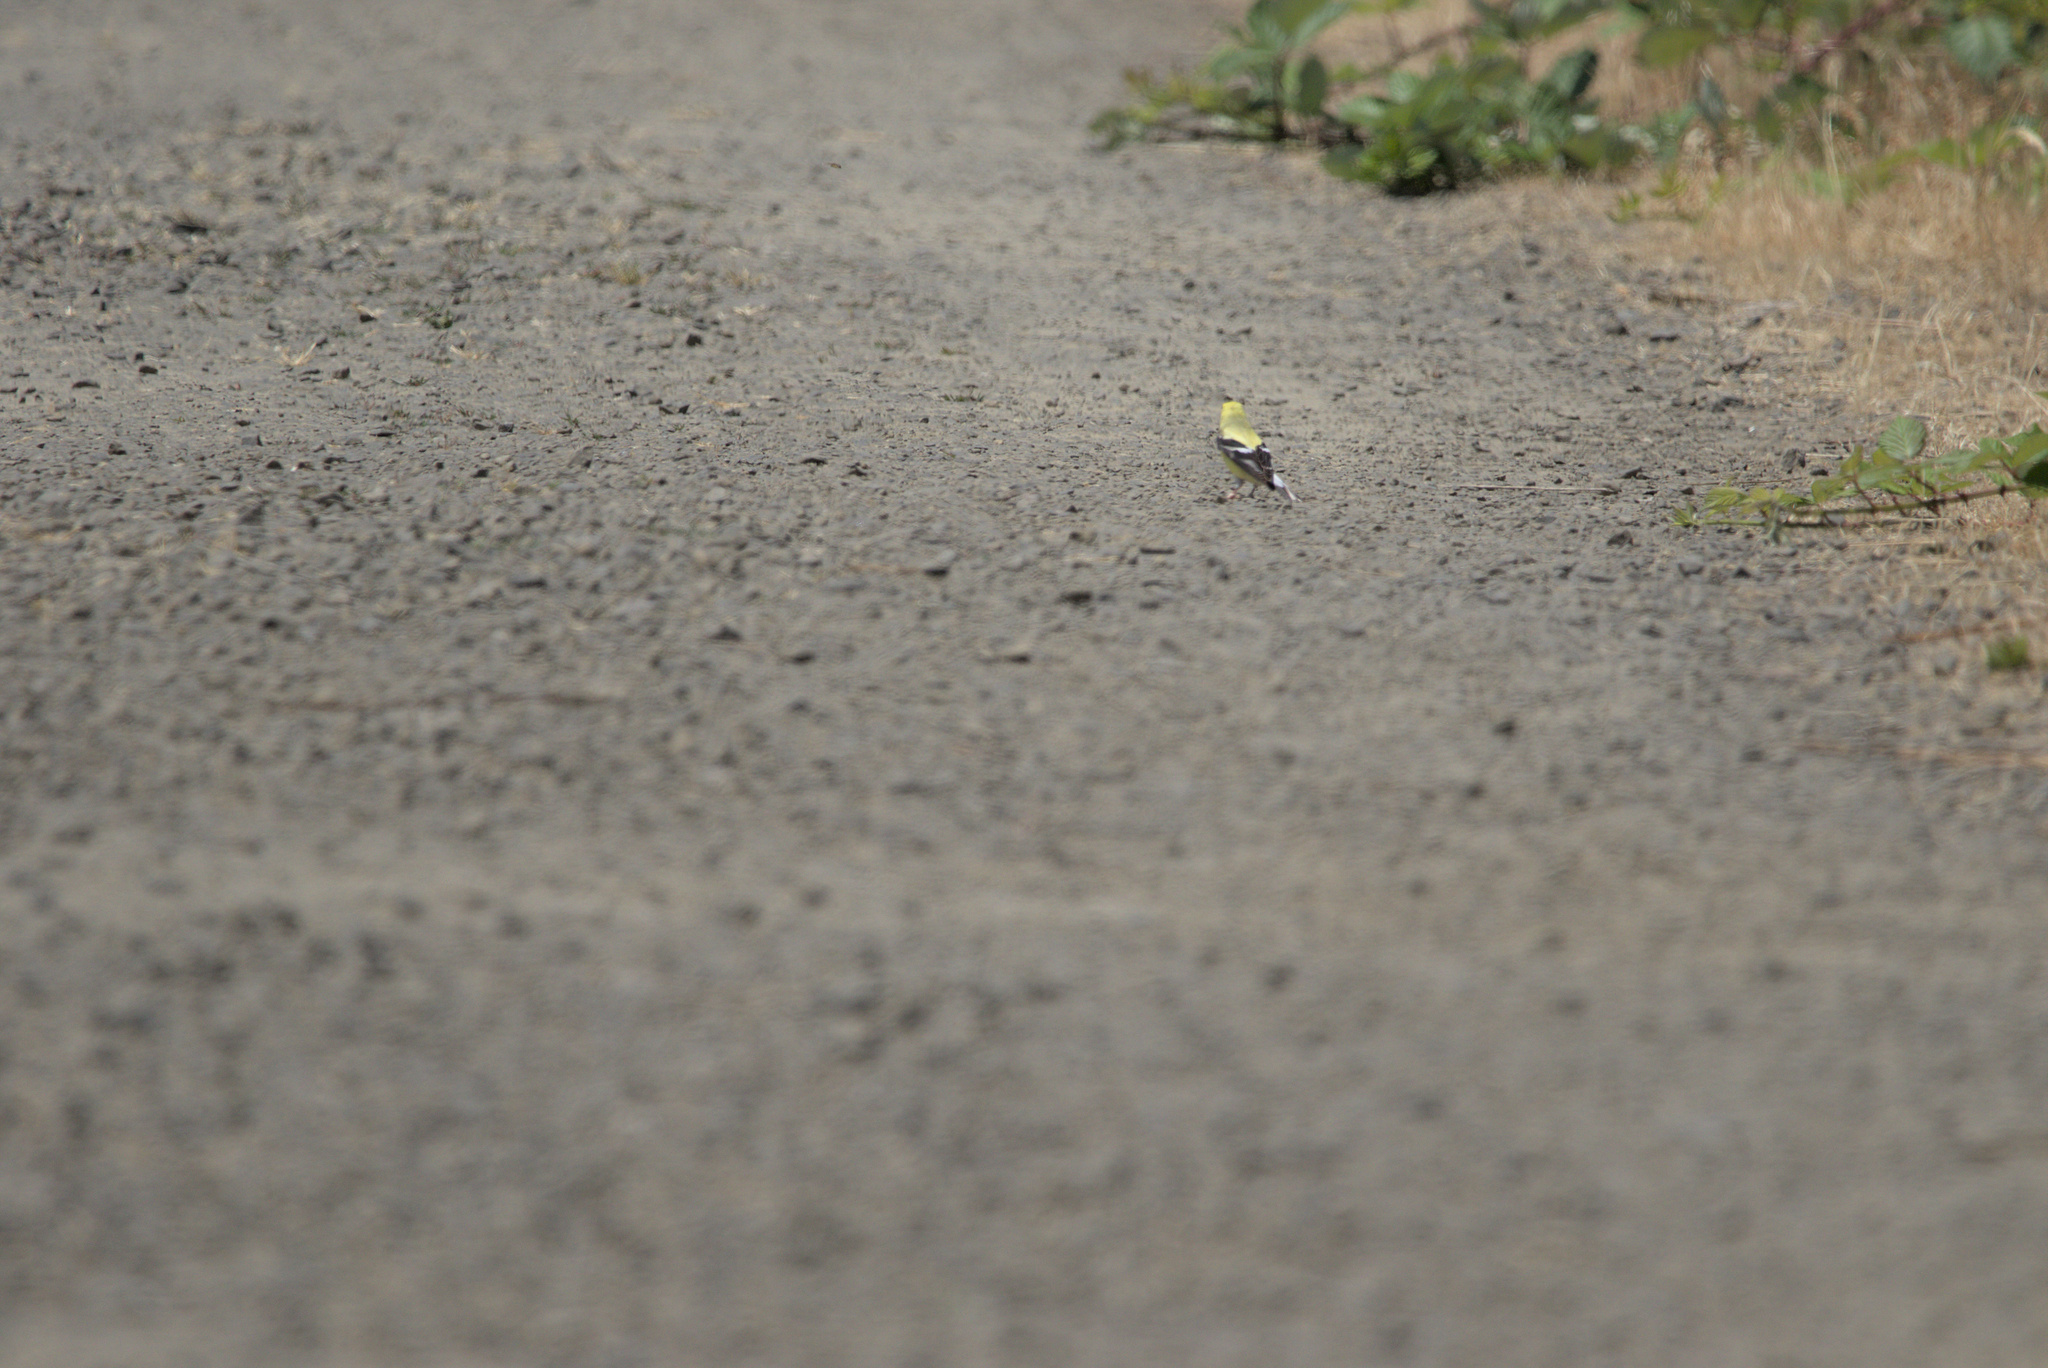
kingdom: Animalia
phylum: Chordata
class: Aves
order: Passeriformes
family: Fringillidae
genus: Spinus
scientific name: Spinus tristis
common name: American goldfinch
